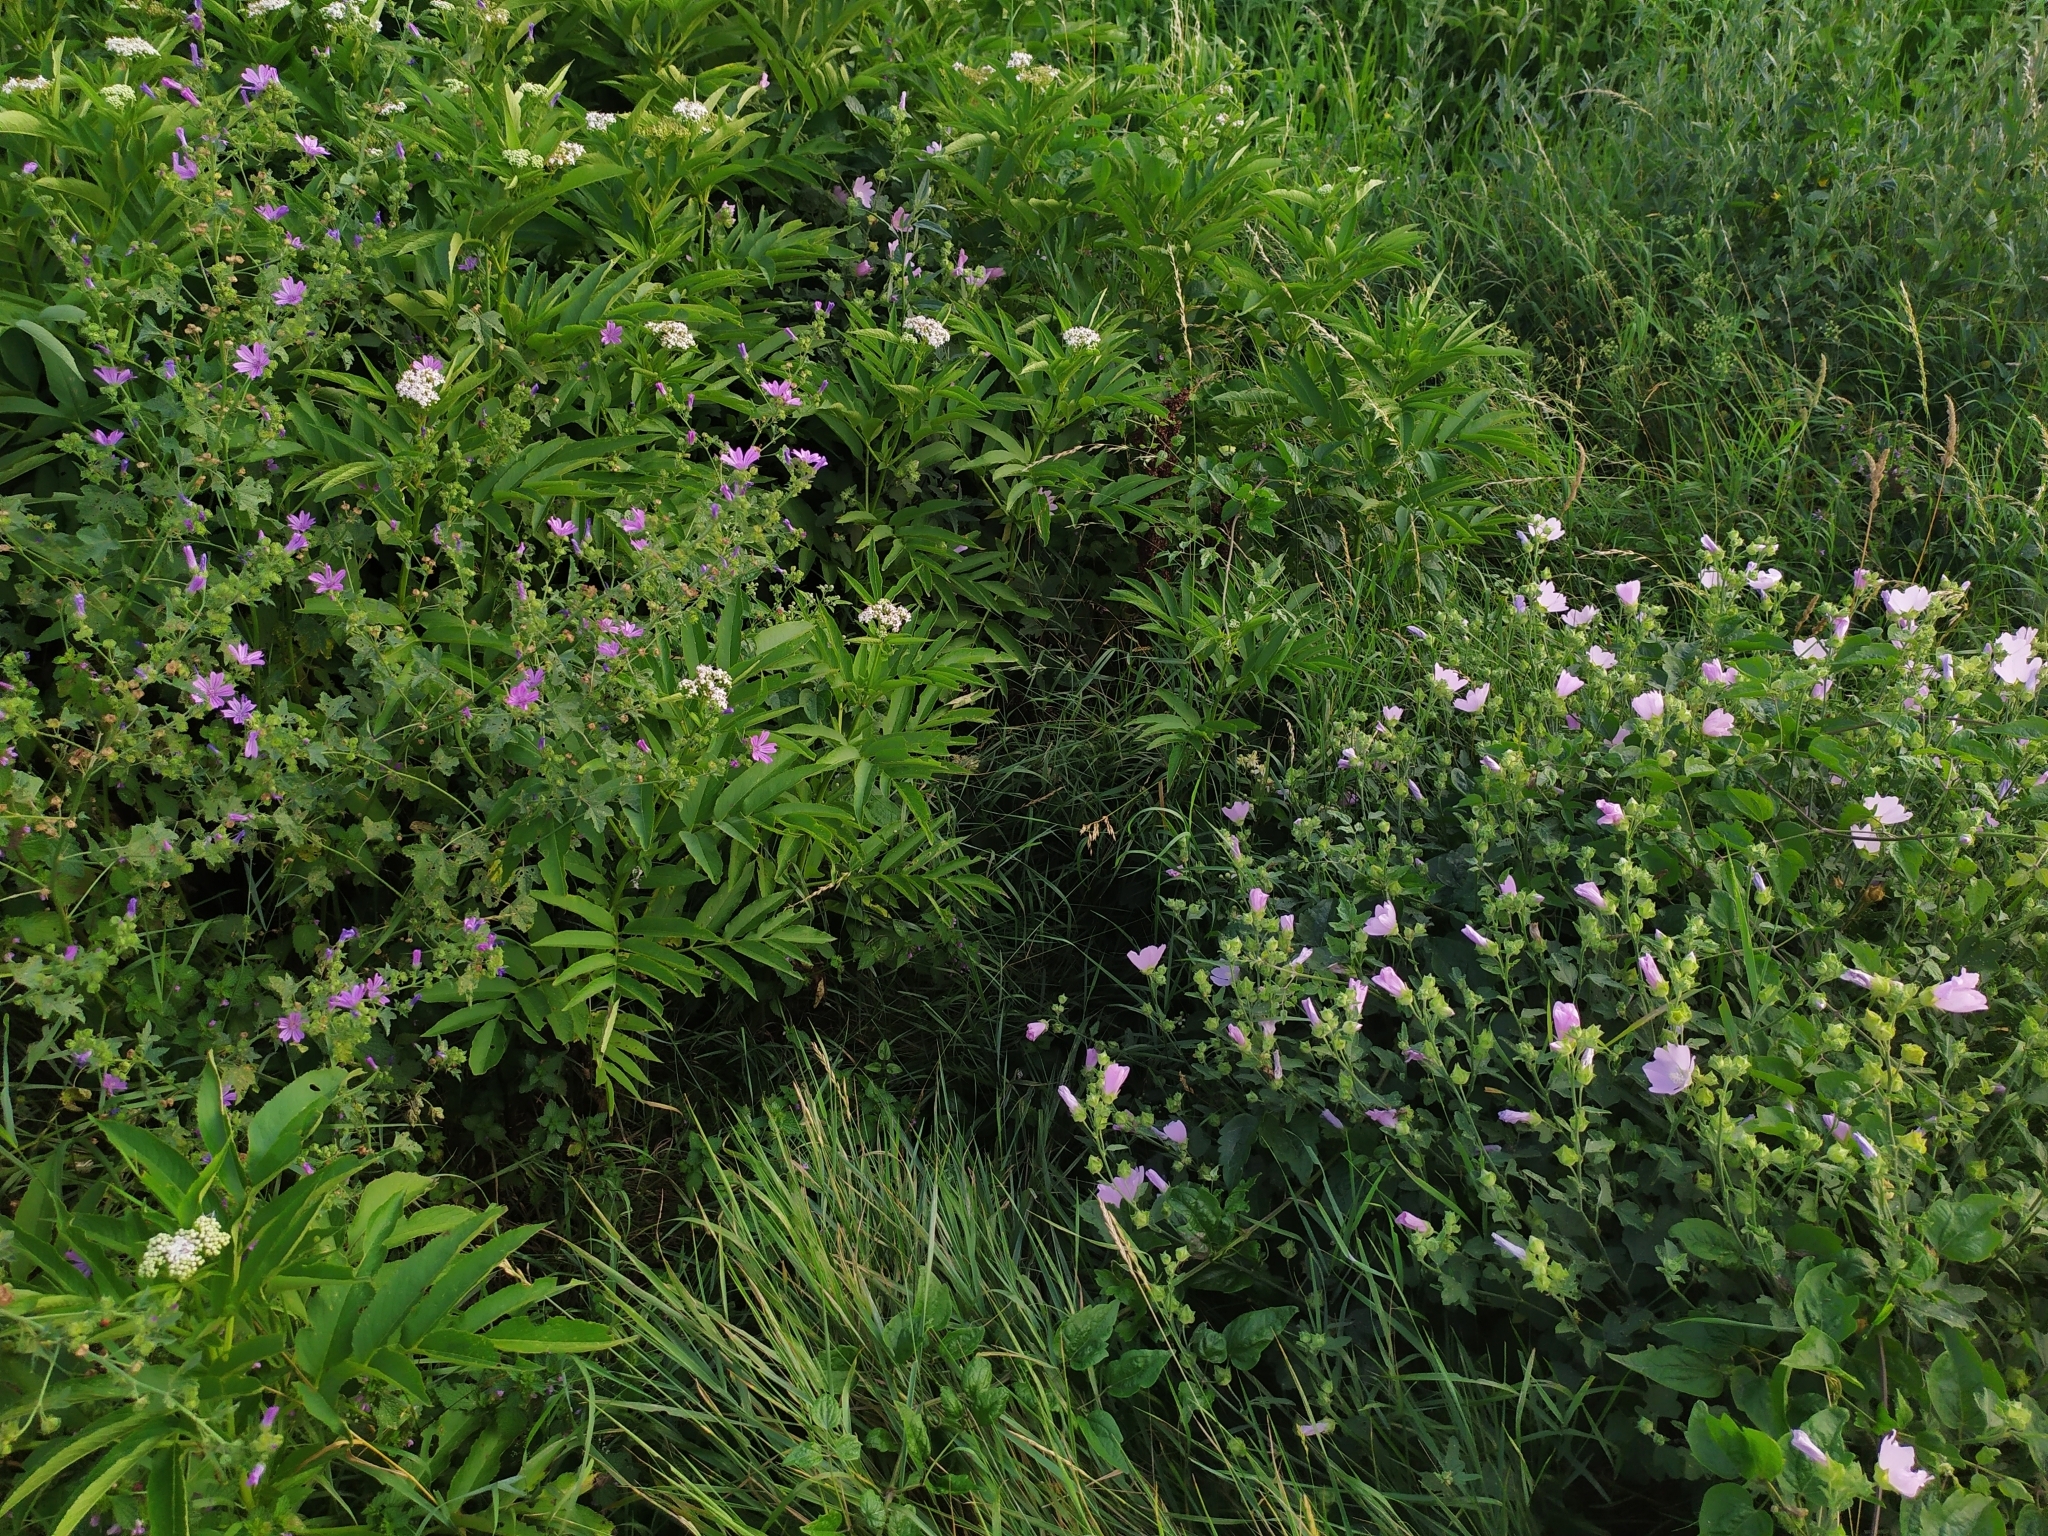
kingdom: Plantae
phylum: Tracheophyta
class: Magnoliopsida
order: Malvales
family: Malvaceae
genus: Malva
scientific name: Malva thuringiaca
